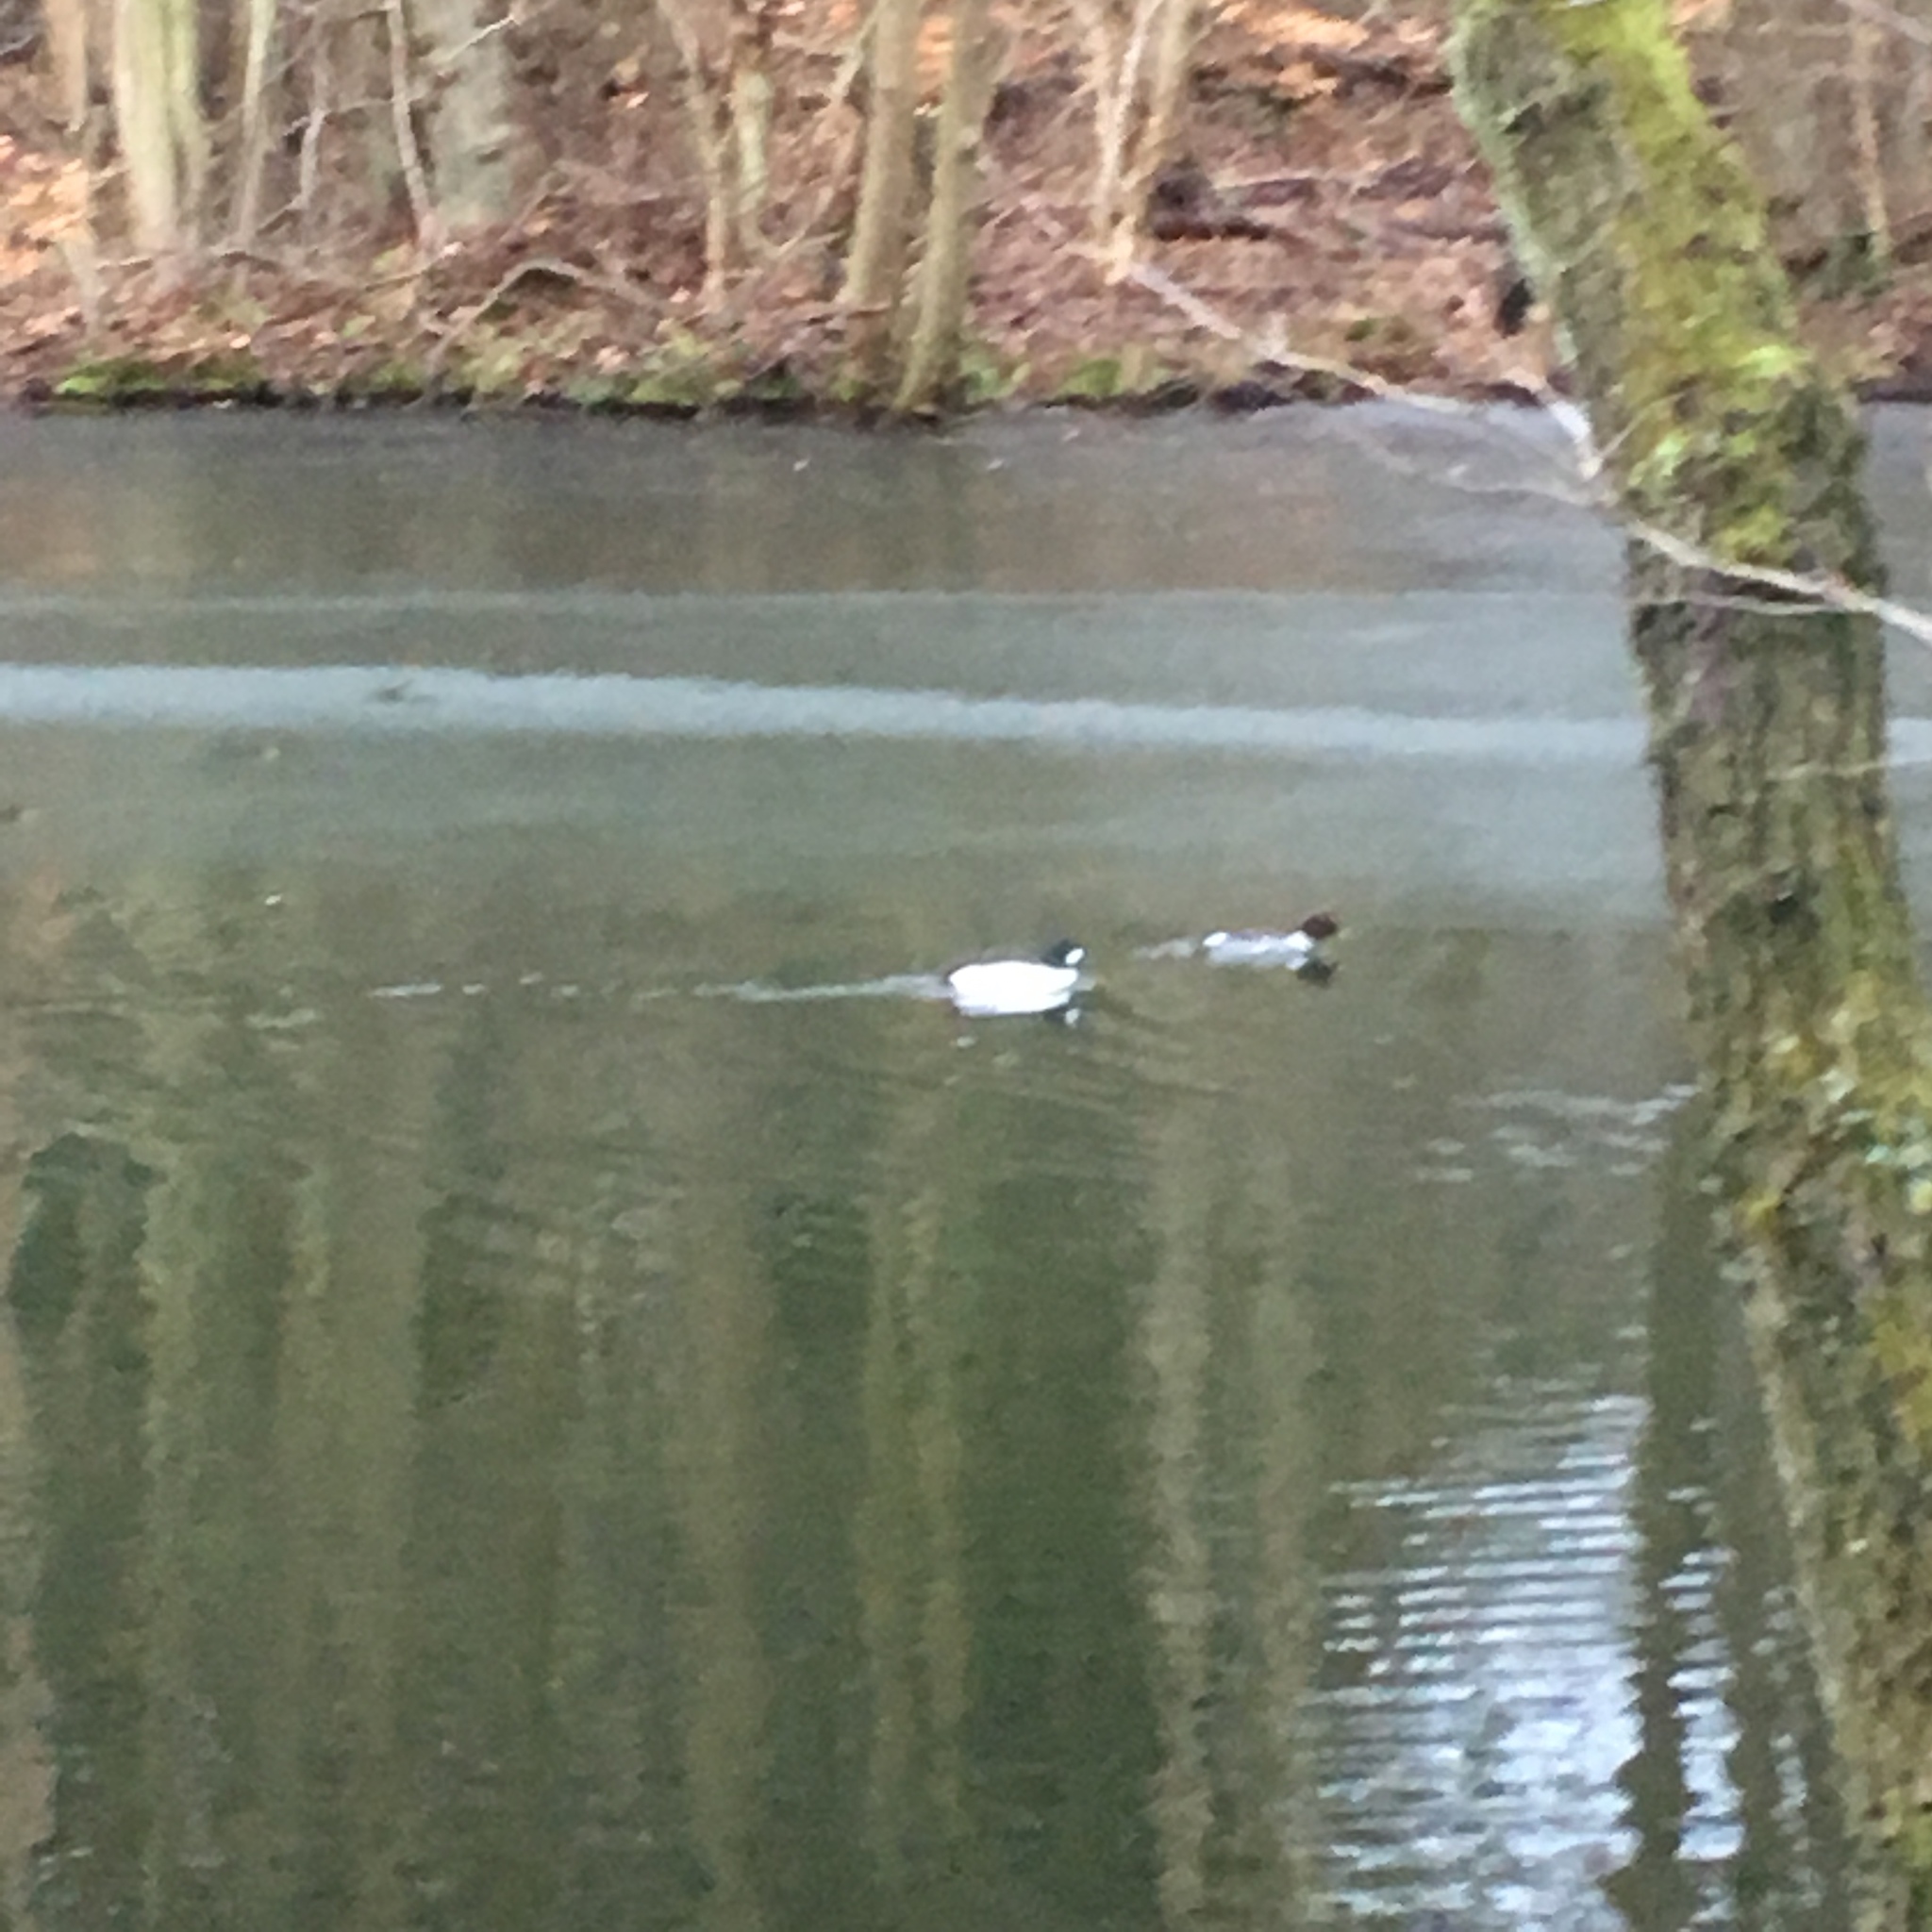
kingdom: Animalia
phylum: Chordata
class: Aves
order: Anseriformes
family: Anatidae
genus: Bucephala
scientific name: Bucephala clangula
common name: Common goldeneye
